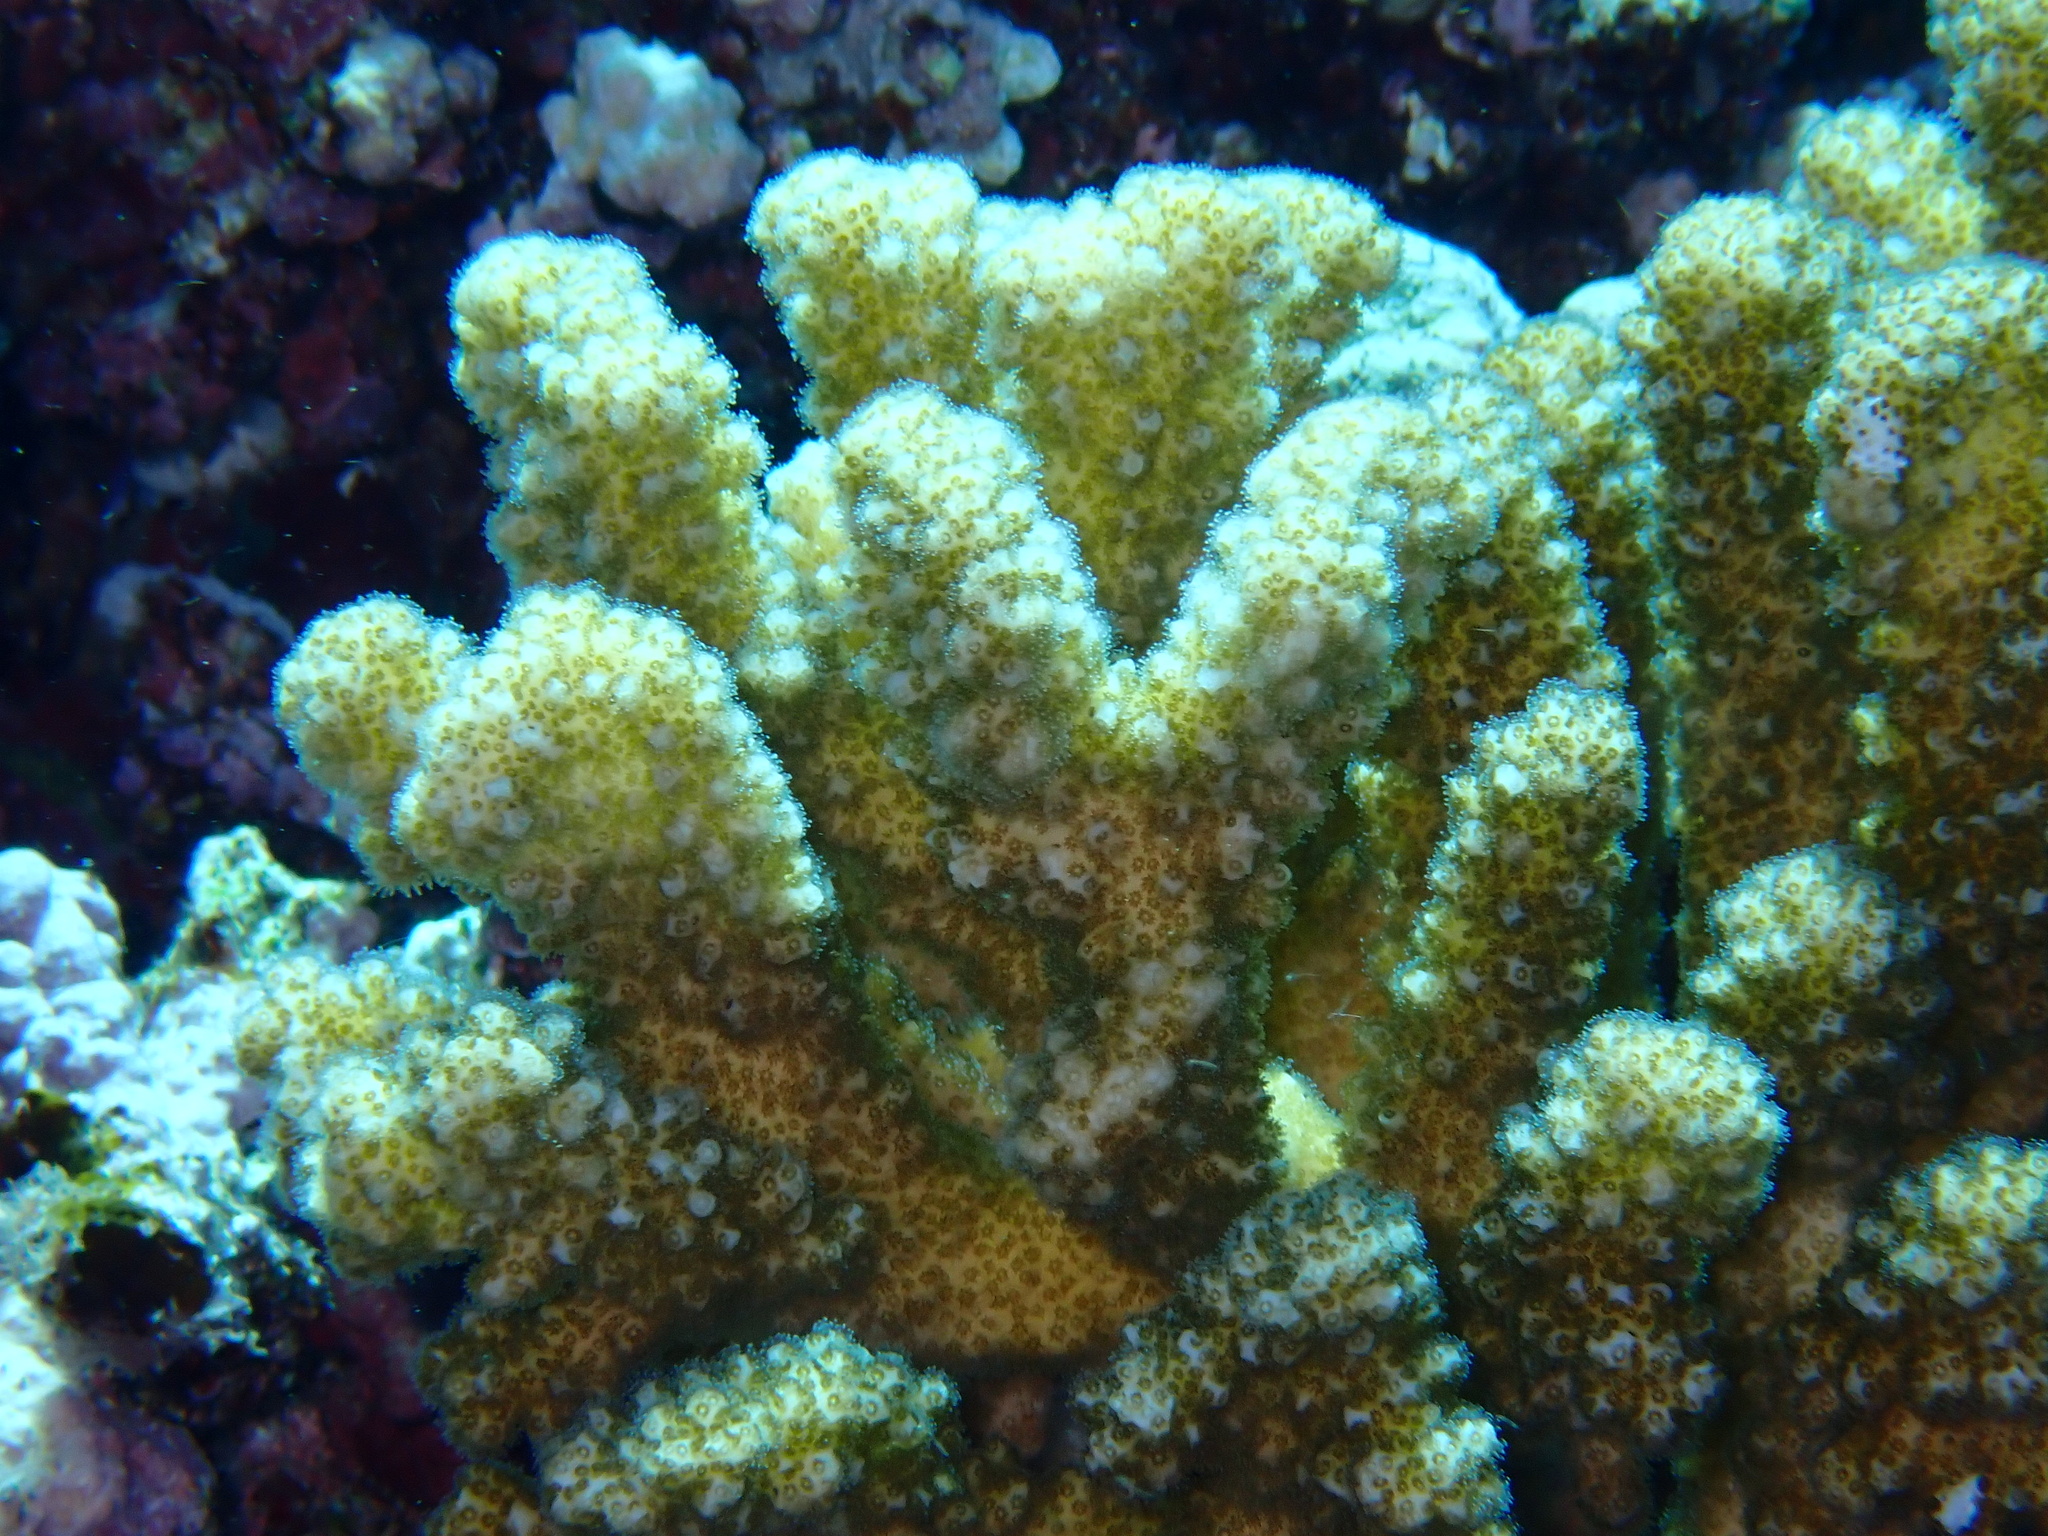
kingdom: Animalia
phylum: Cnidaria
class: Anthozoa
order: Scleractinia
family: Pocilloporidae
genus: Pocillopora
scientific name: Pocillopora verrucosa
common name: Cauliflower coral
